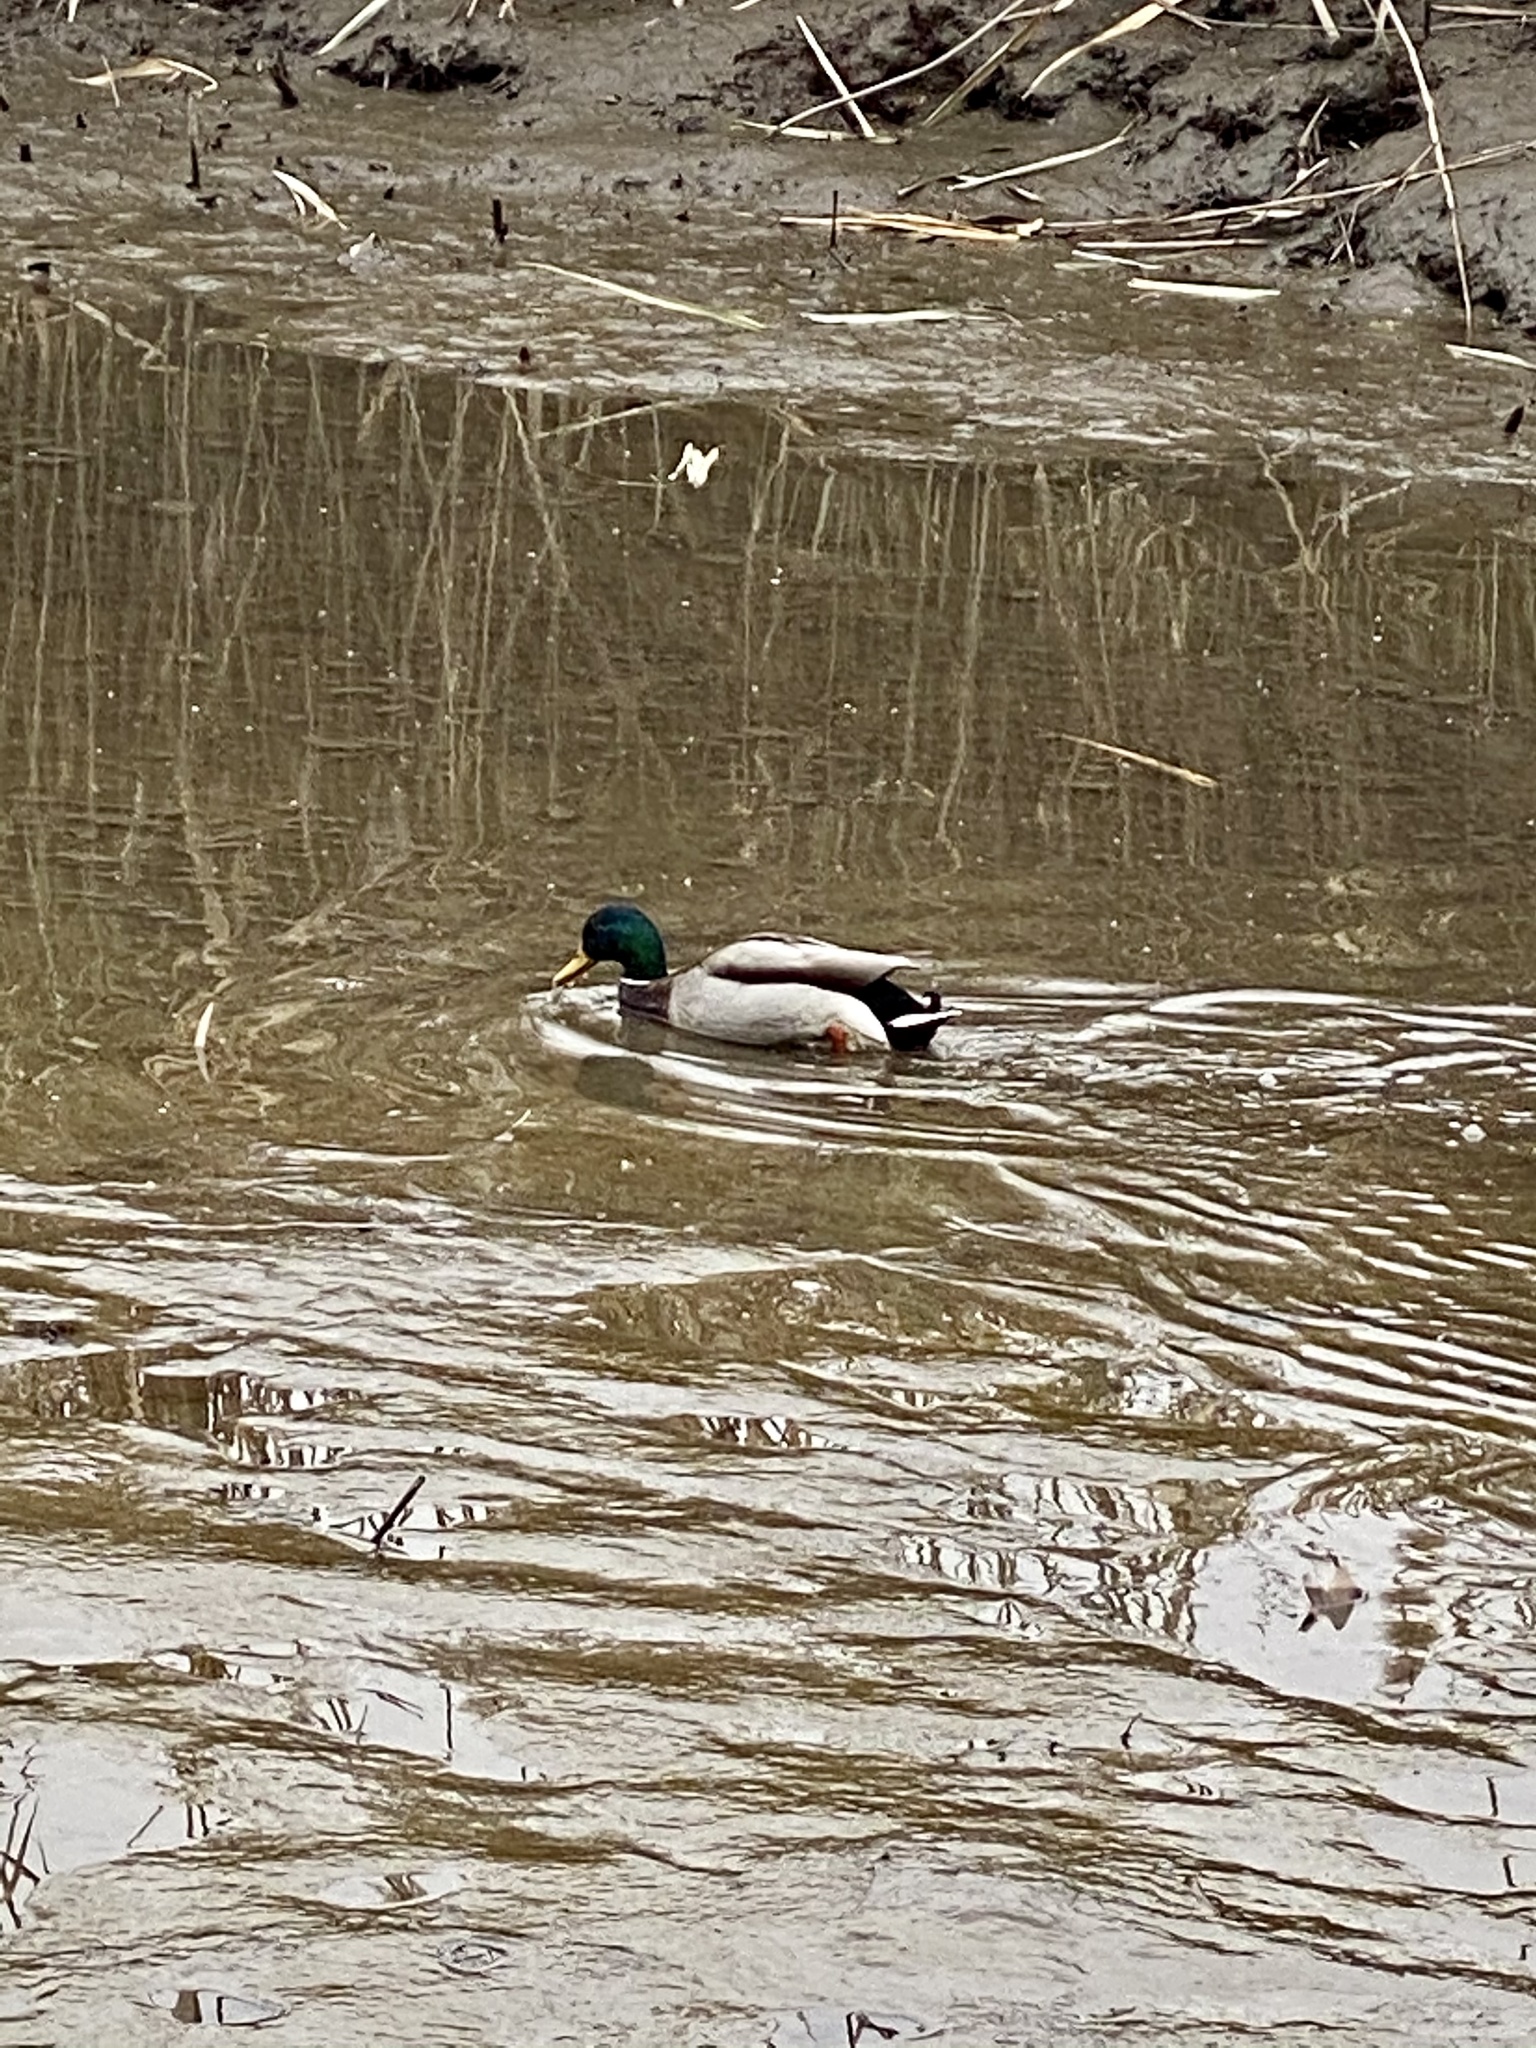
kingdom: Animalia
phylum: Chordata
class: Aves
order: Anseriformes
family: Anatidae
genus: Anas
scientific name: Anas platyrhynchos
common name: Mallard
